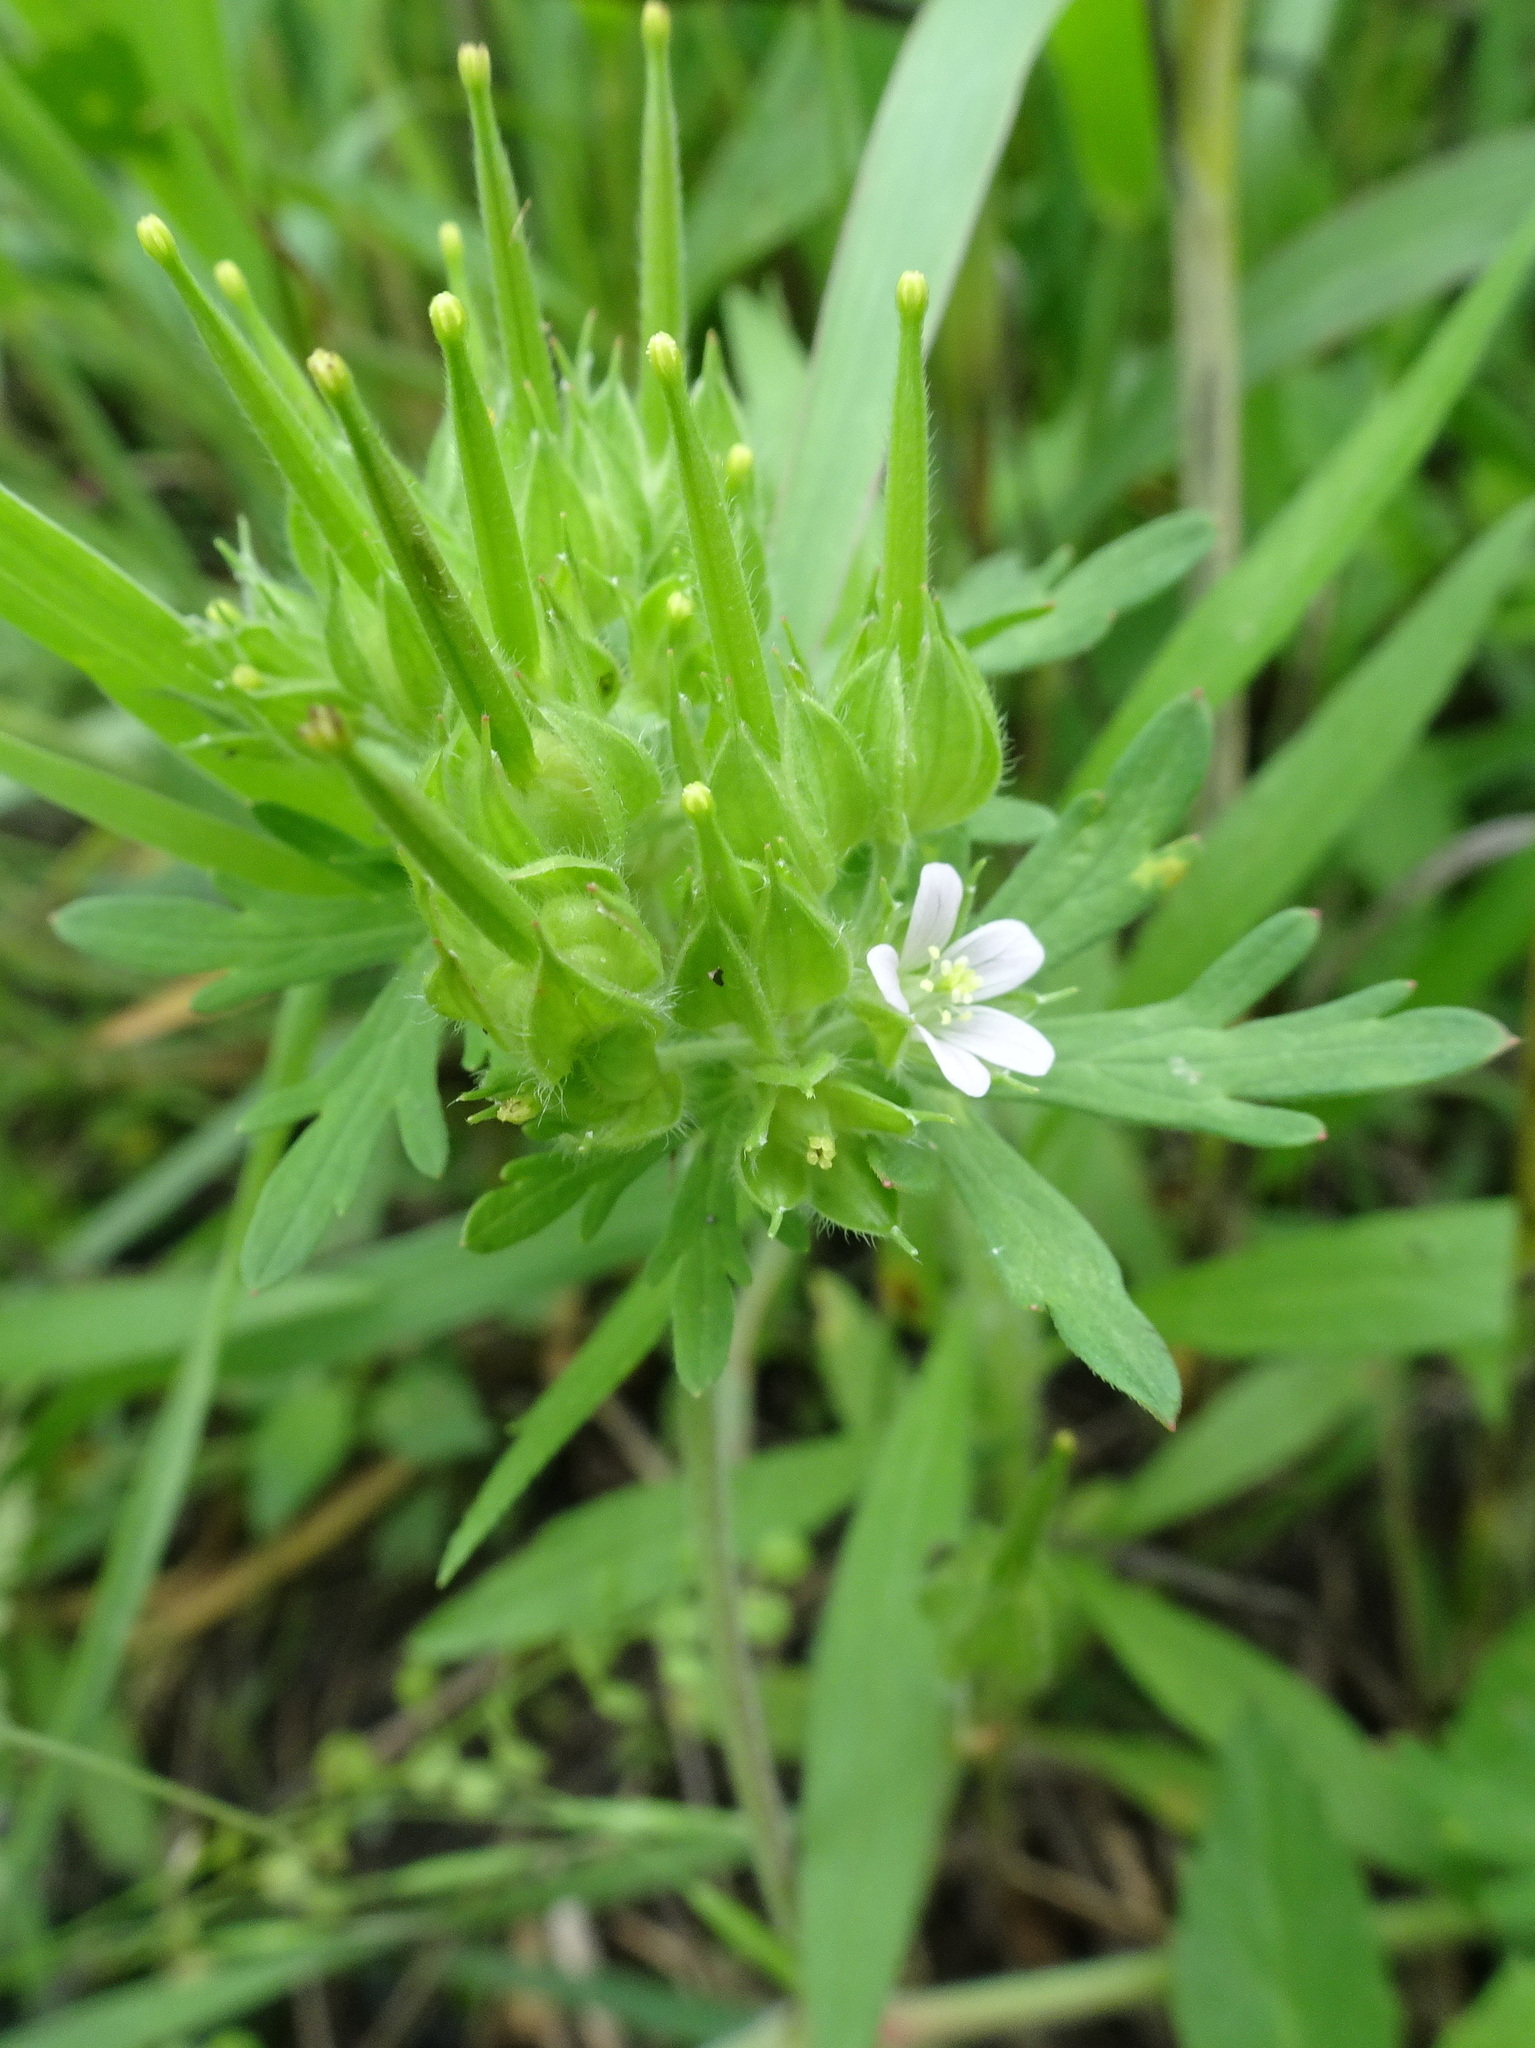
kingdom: Plantae
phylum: Tracheophyta
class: Magnoliopsida
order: Geraniales
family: Geraniaceae
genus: Geranium
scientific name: Geranium carolinianum
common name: Carolina crane's-bill
